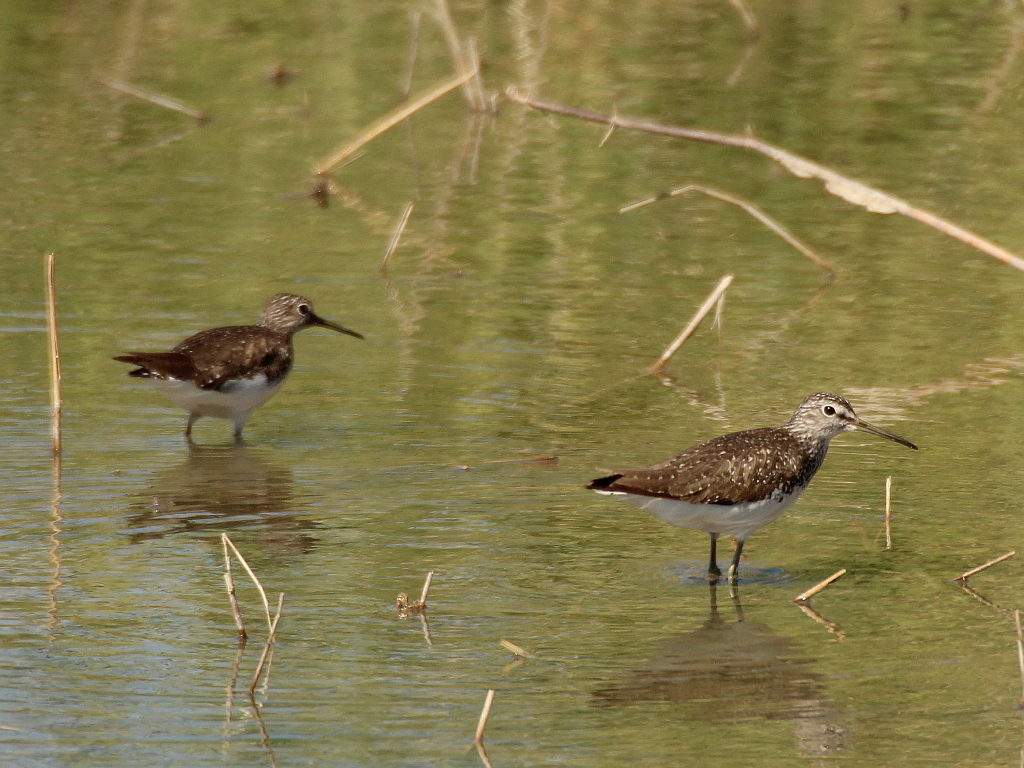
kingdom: Animalia
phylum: Chordata
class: Aves
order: Charadriiformes
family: Scolopacidae
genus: Tringa
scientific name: Tringa ochropus
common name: Green sandpiper
